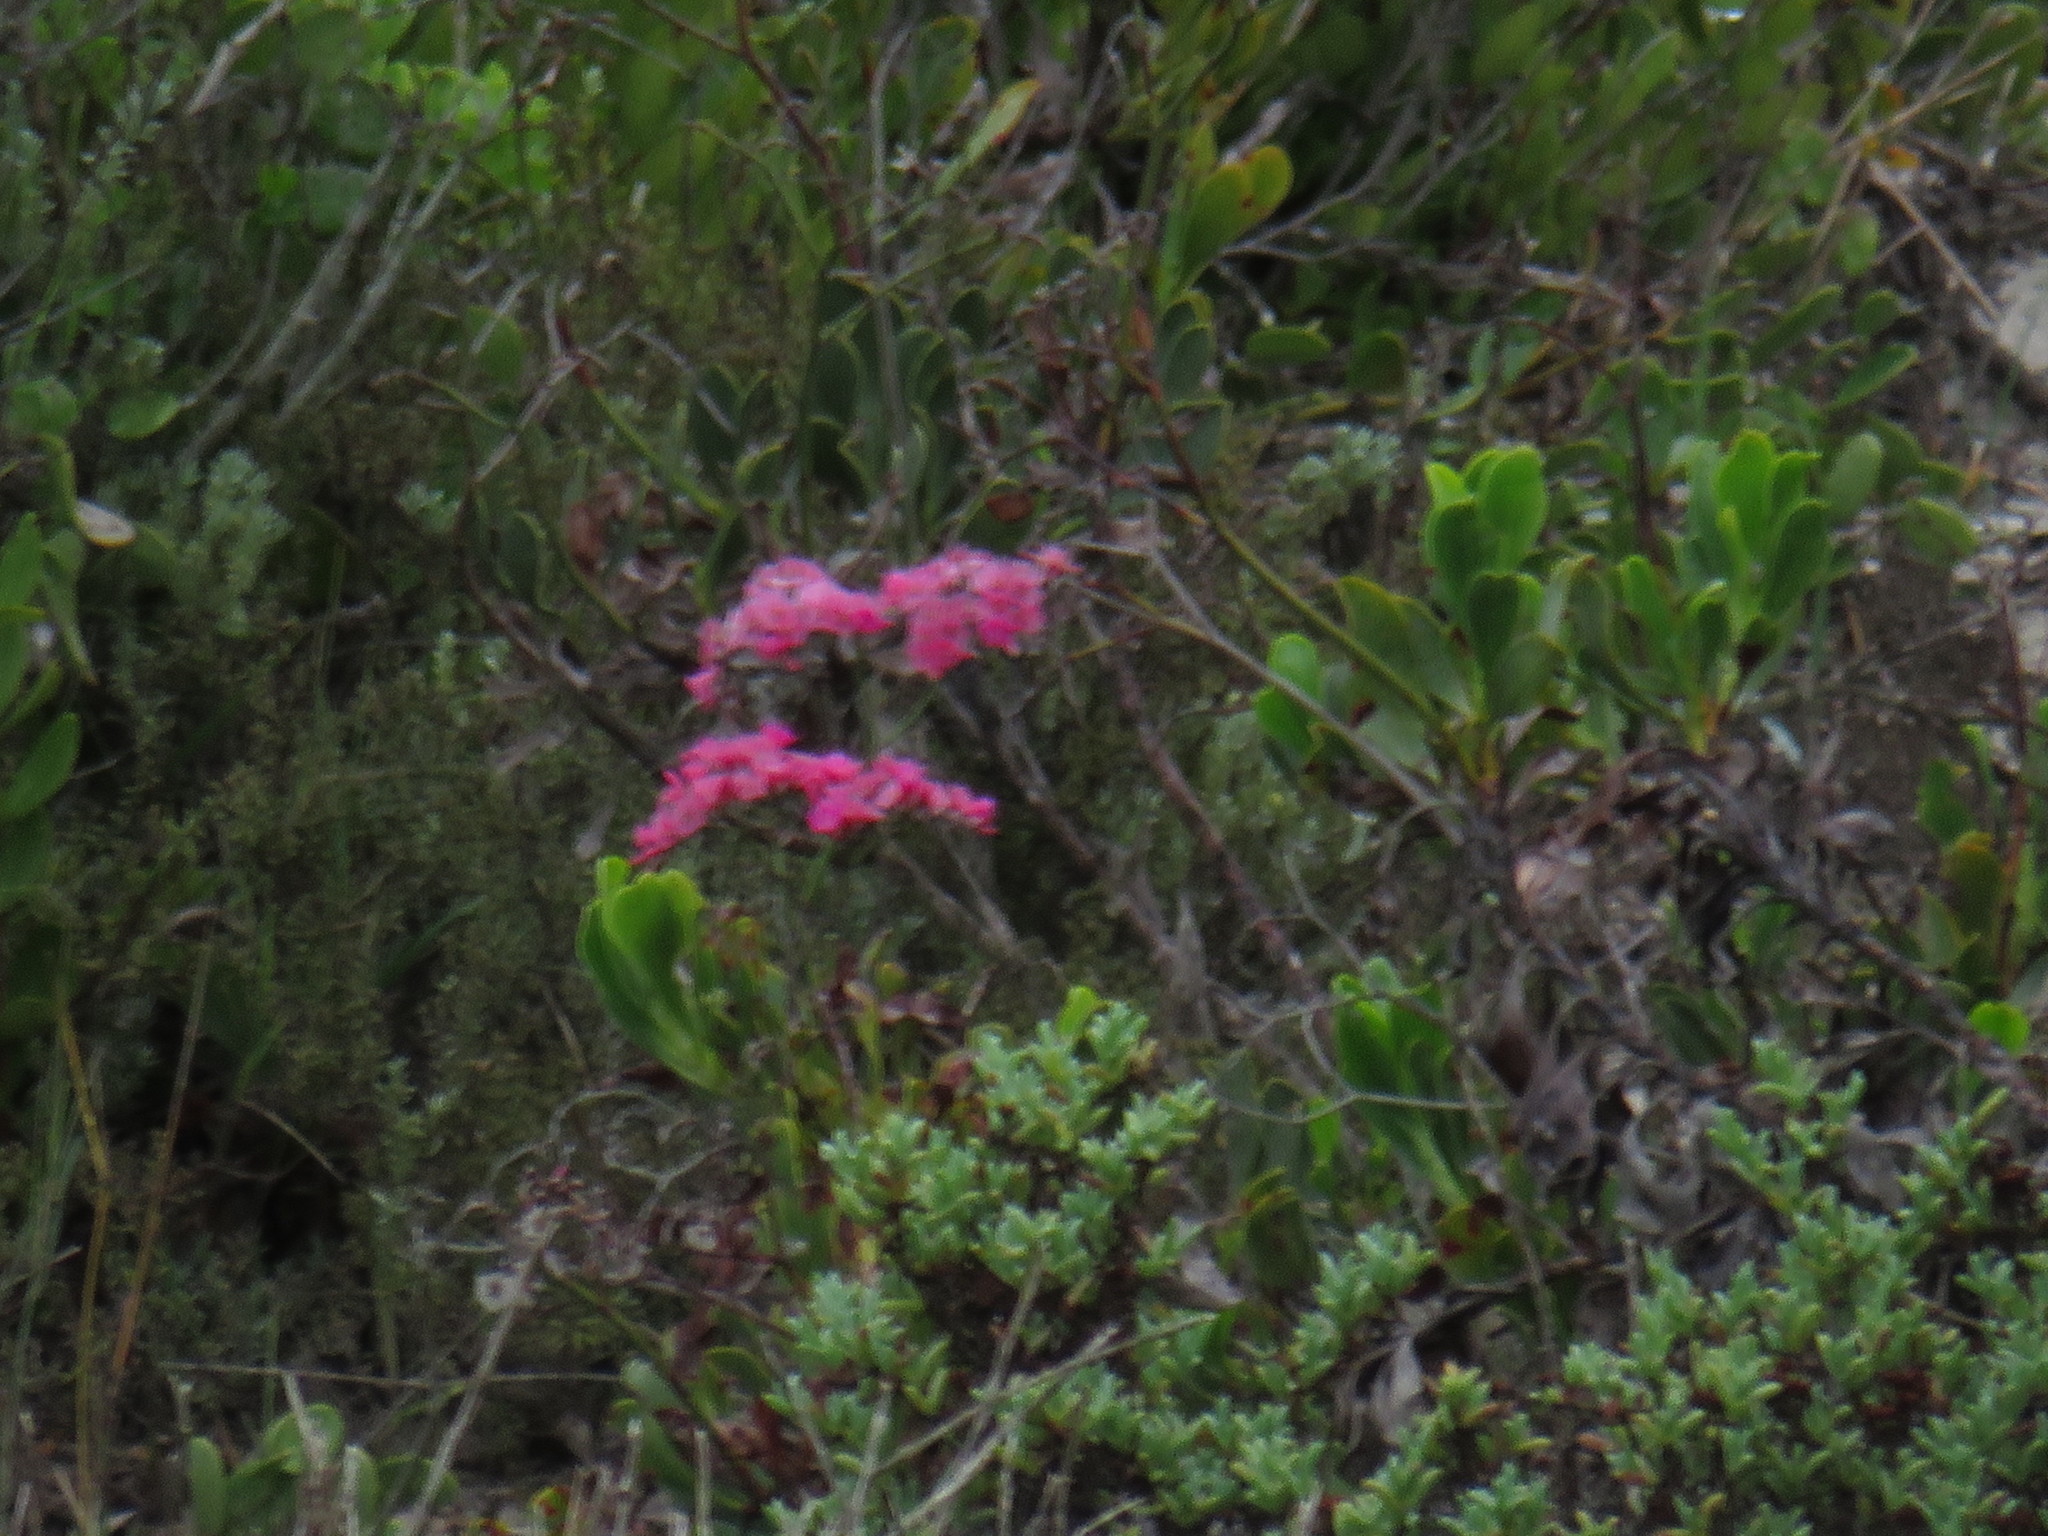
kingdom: Plantae
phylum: Tracheophyta
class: Magnoliopsida
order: Caryophyllales
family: Plumbaginaceae
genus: Limonium
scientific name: Limonium peregrinum
